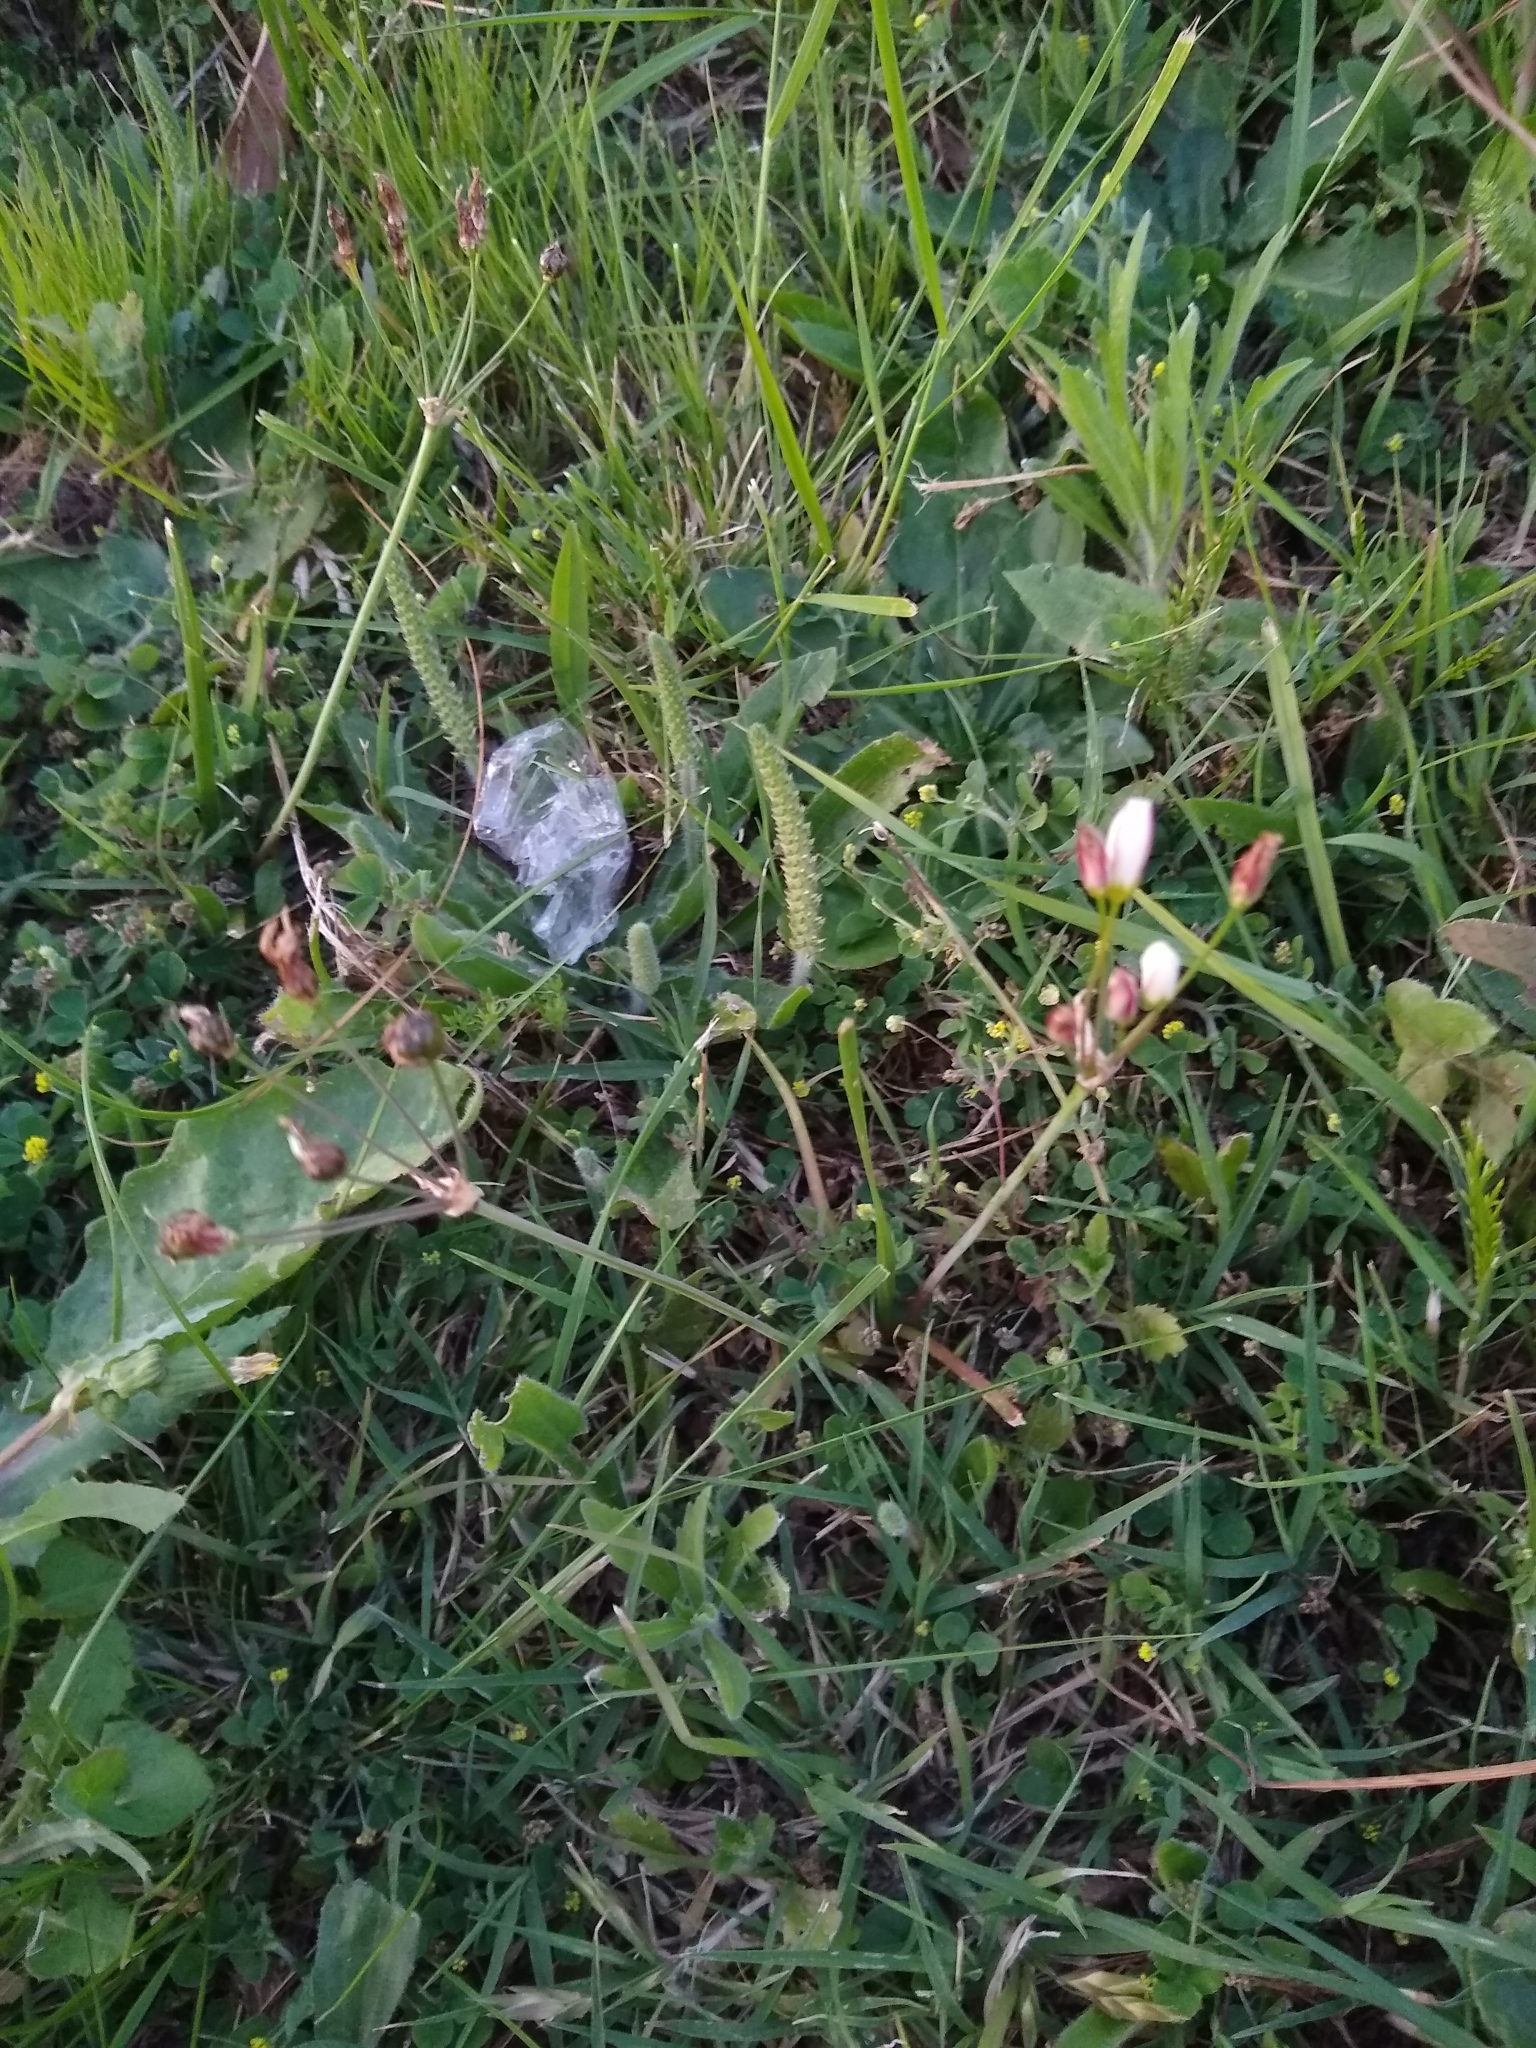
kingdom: Plantae
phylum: Tracheophyta
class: Liliopsida
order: Asparagales
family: Amaryllidaceae
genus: Nothoscordum
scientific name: Nothoscordum bonariense
